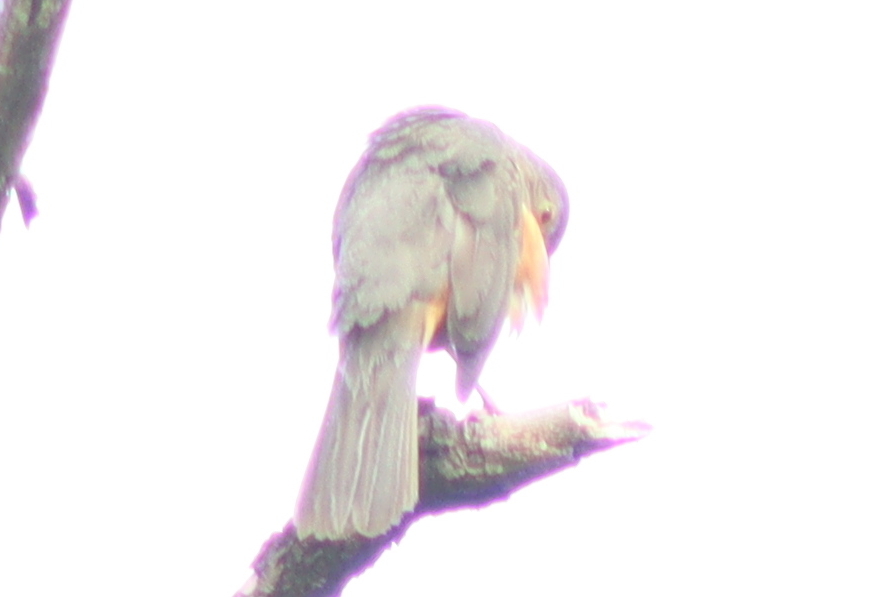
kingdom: Animalia
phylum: Chordata
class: Aves
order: Passeriformes
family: Turdidae
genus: Turdus
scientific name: Turdus rufiventris
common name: Rufous-bellied thrush
